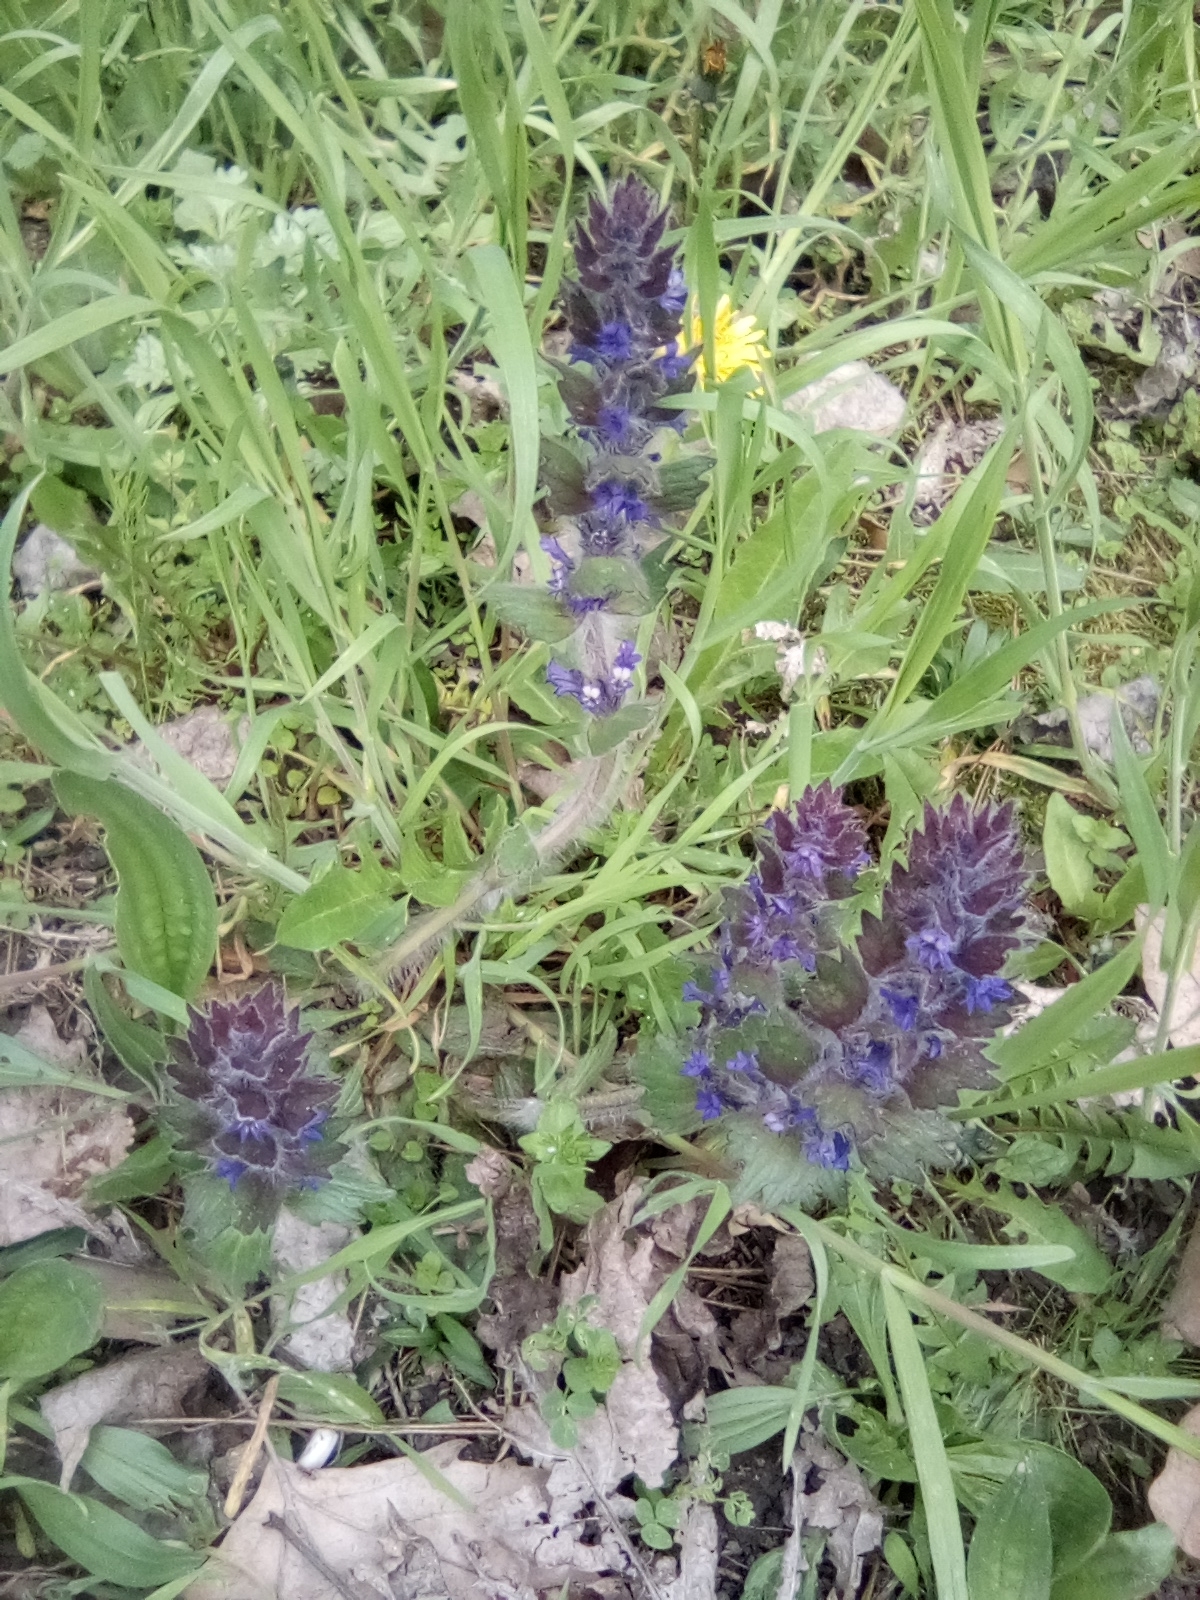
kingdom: Plantae
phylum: Tracheophyta
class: Magnoliopsida
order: Lamiales
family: Lamiaceae
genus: Ajuga
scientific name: Ajuga orientalis
